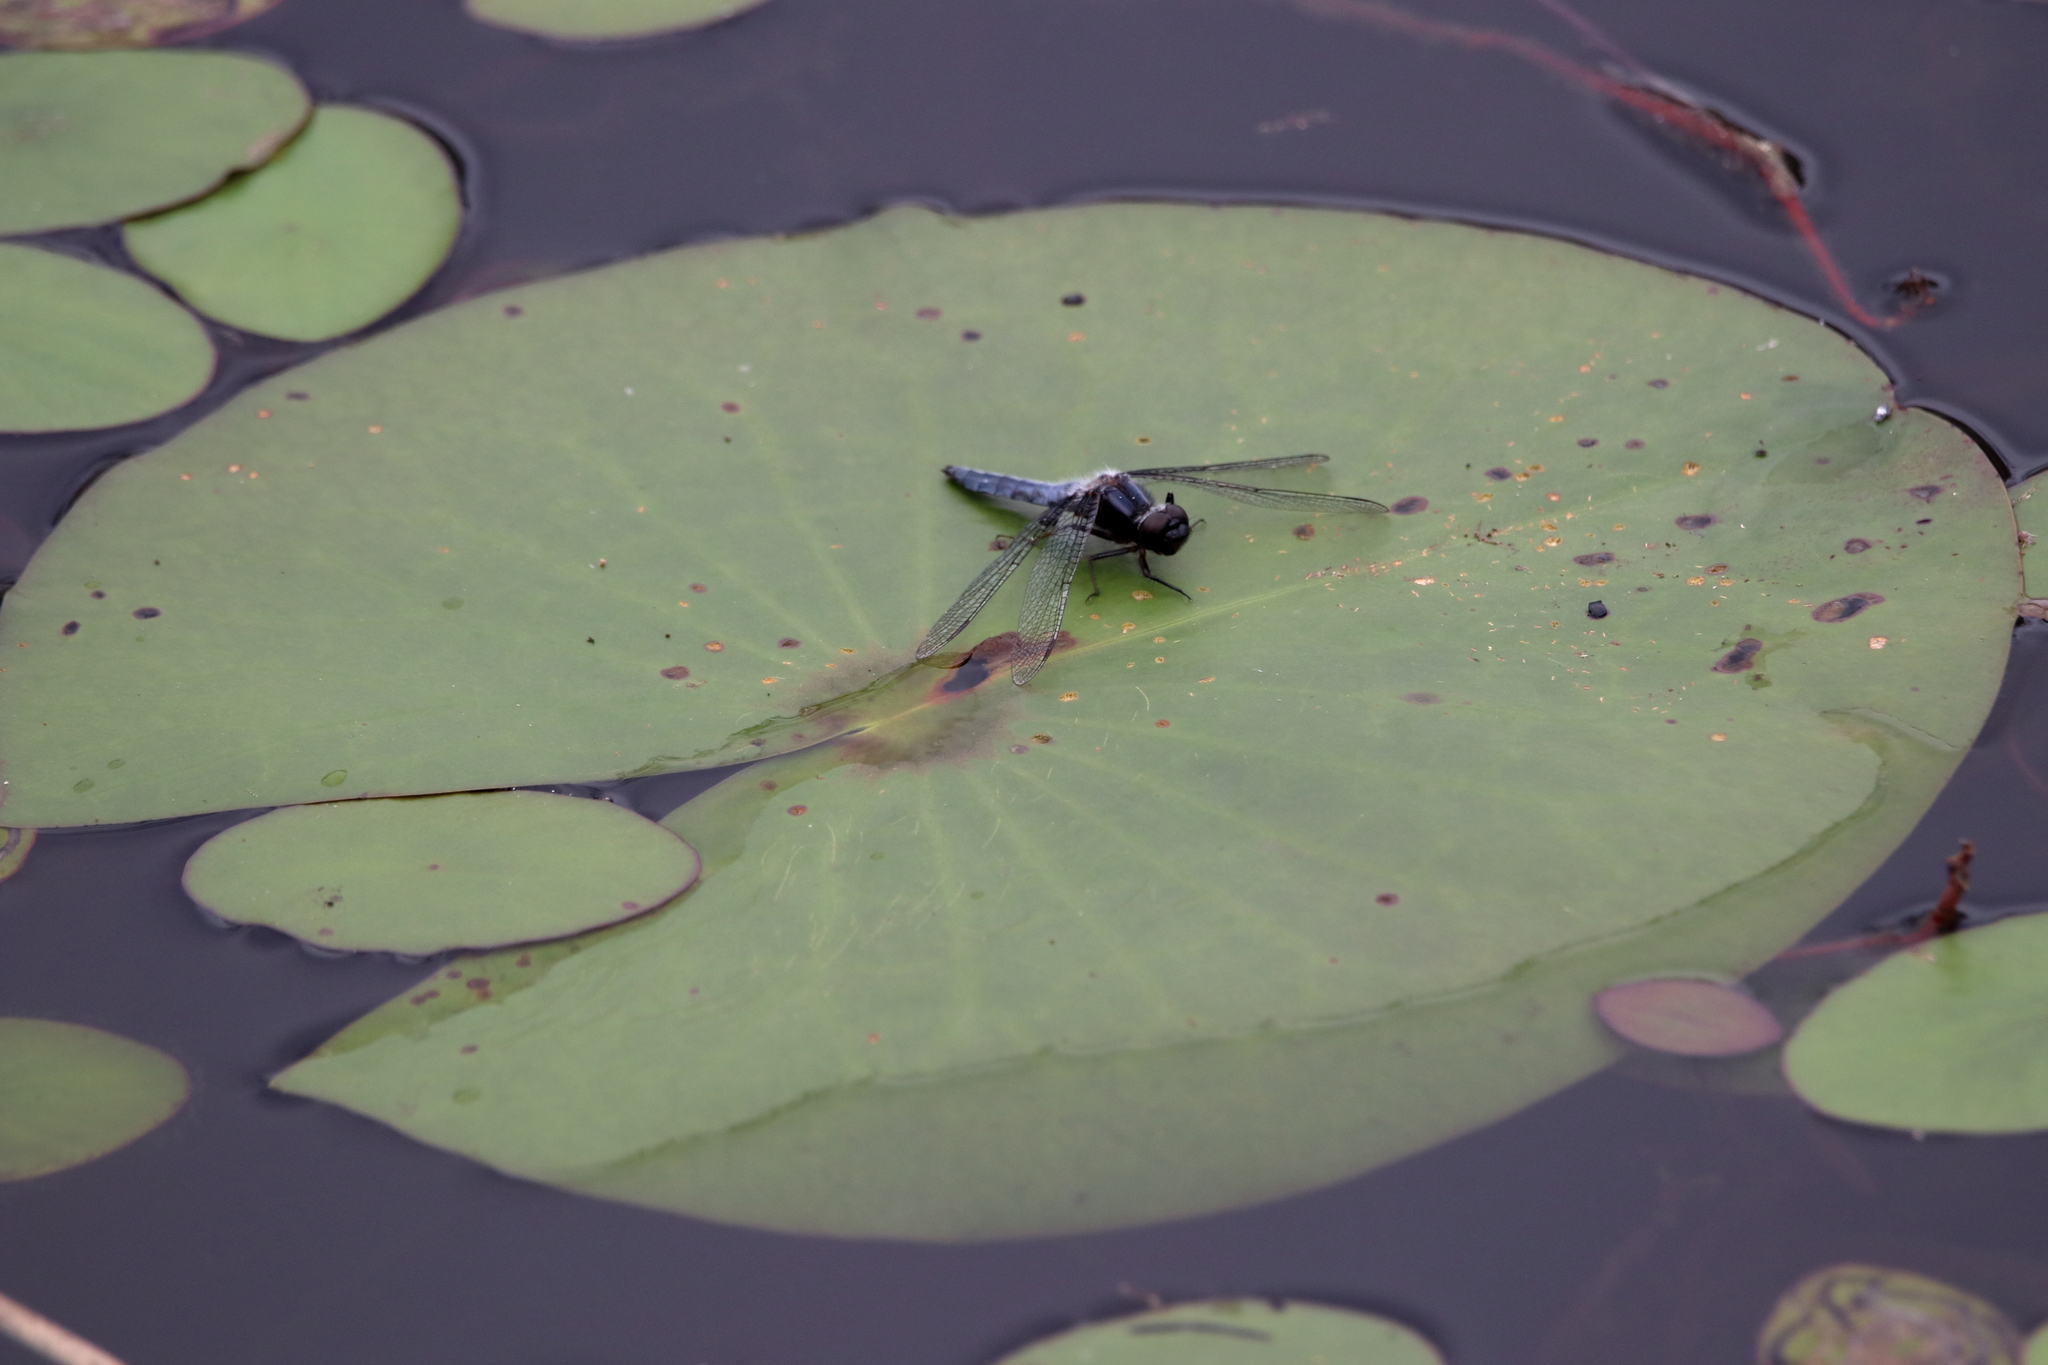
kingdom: Animalia
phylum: Arthropoda
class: Insecta
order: Odonata
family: Libellulidae
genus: Ladona
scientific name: Ladona deplanata
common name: Blue corporal
